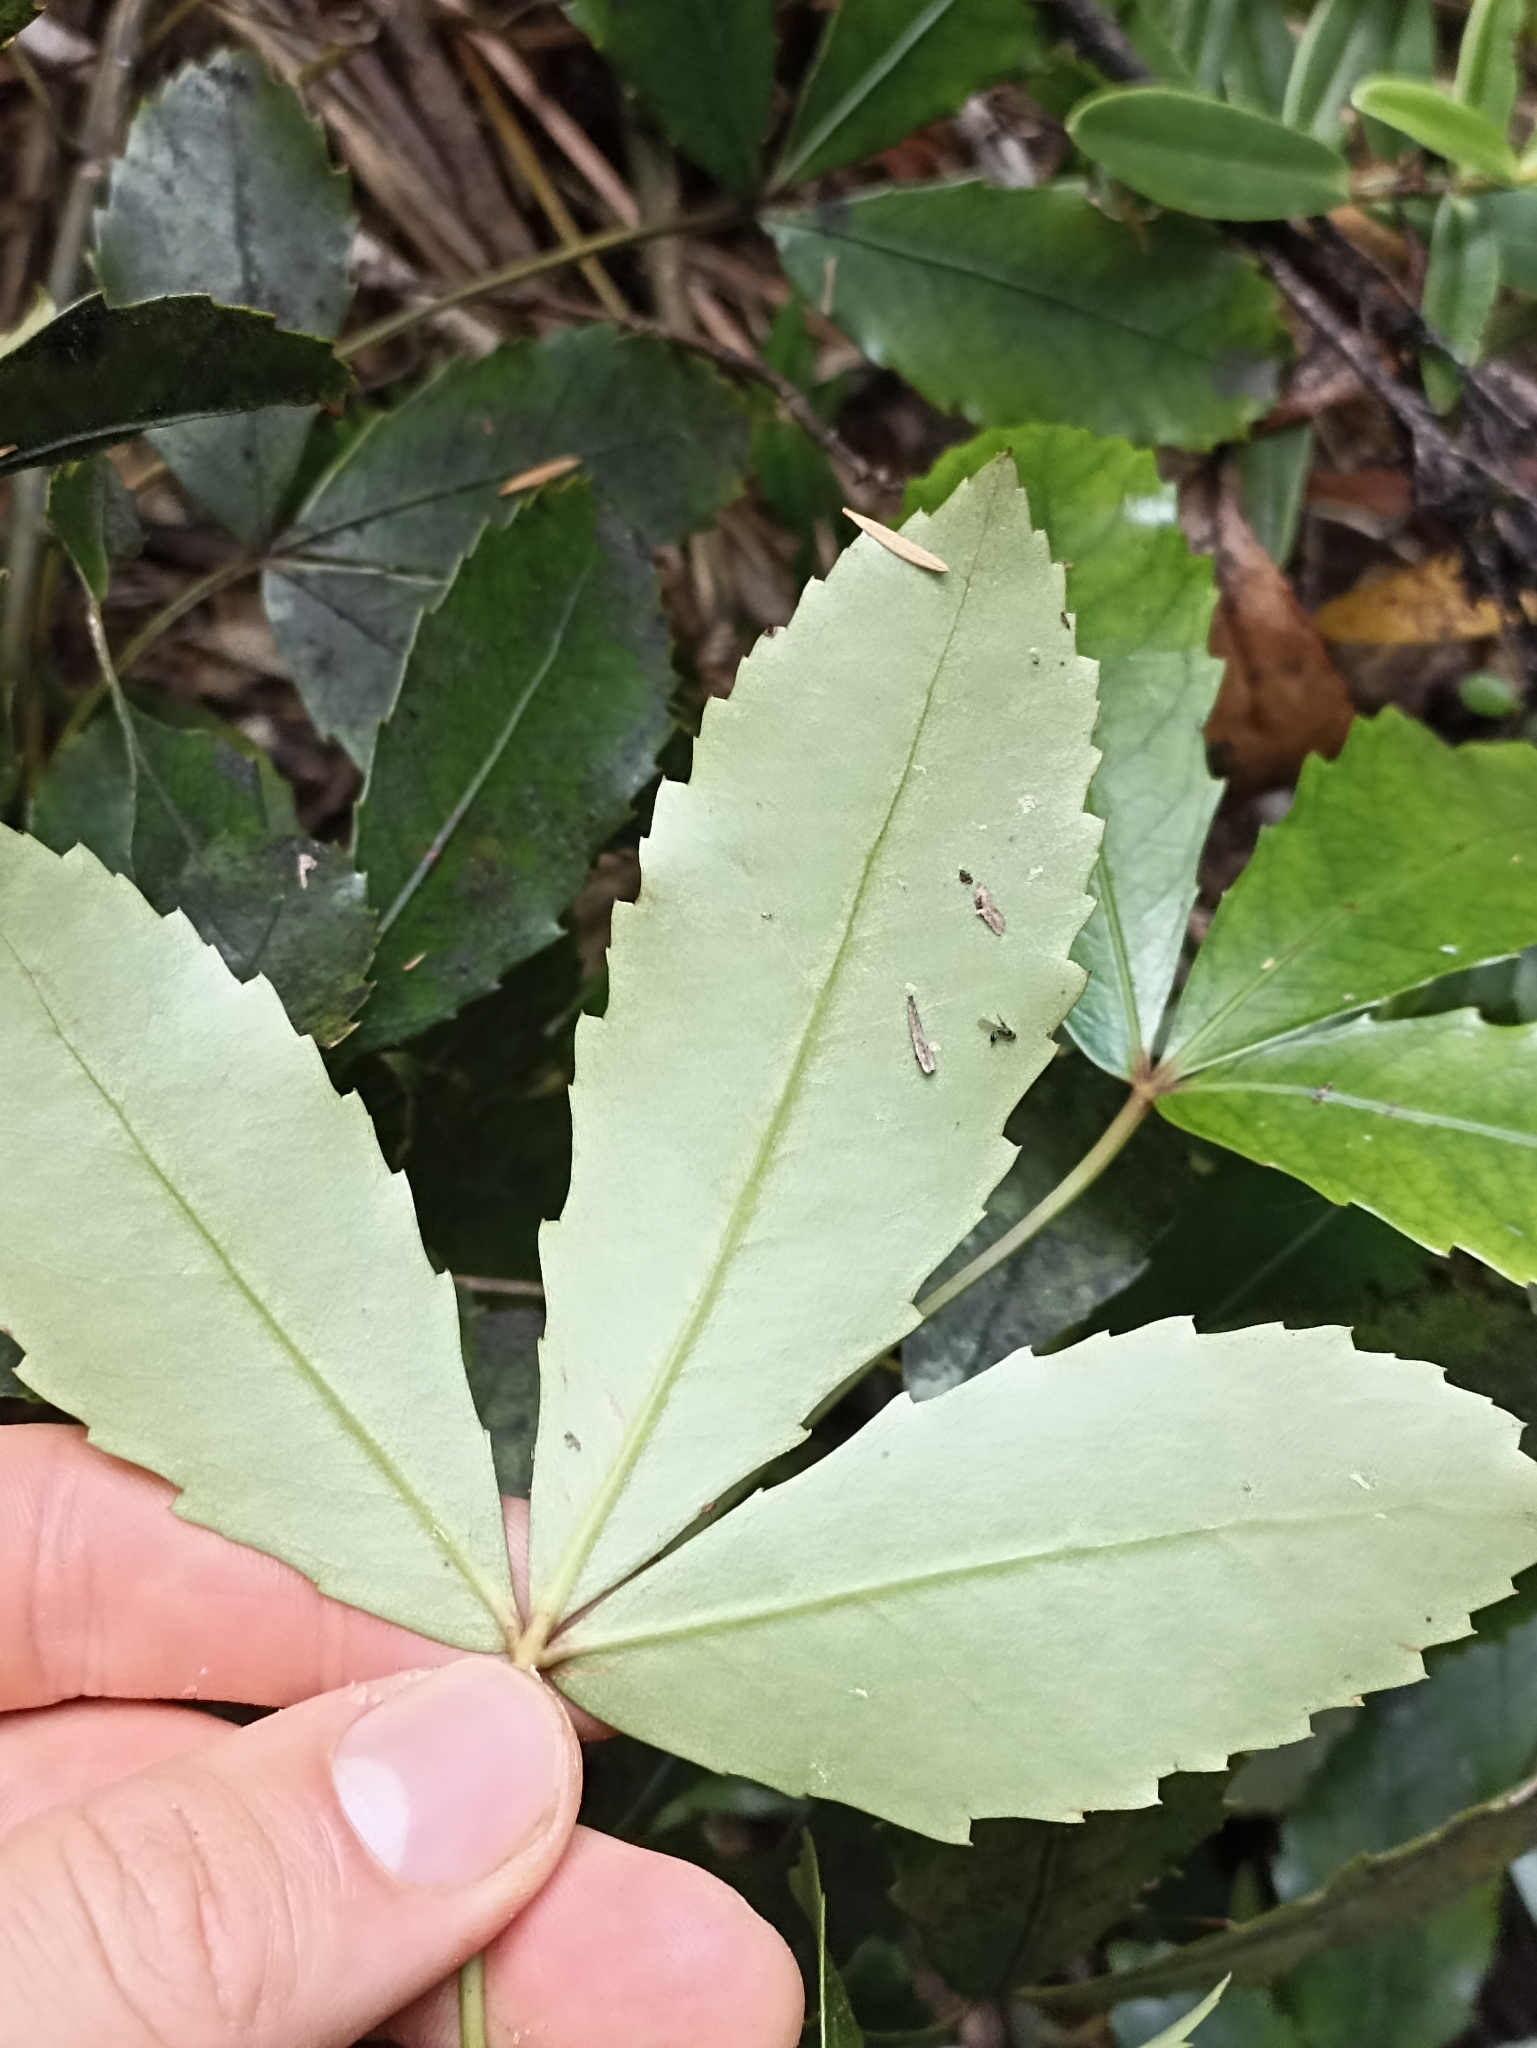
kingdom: Plantae
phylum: Tracheophyta
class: Magnoliopsida
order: Apiales
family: Araliaceae
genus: Pseudopanax
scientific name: Pseudopanax discolor
